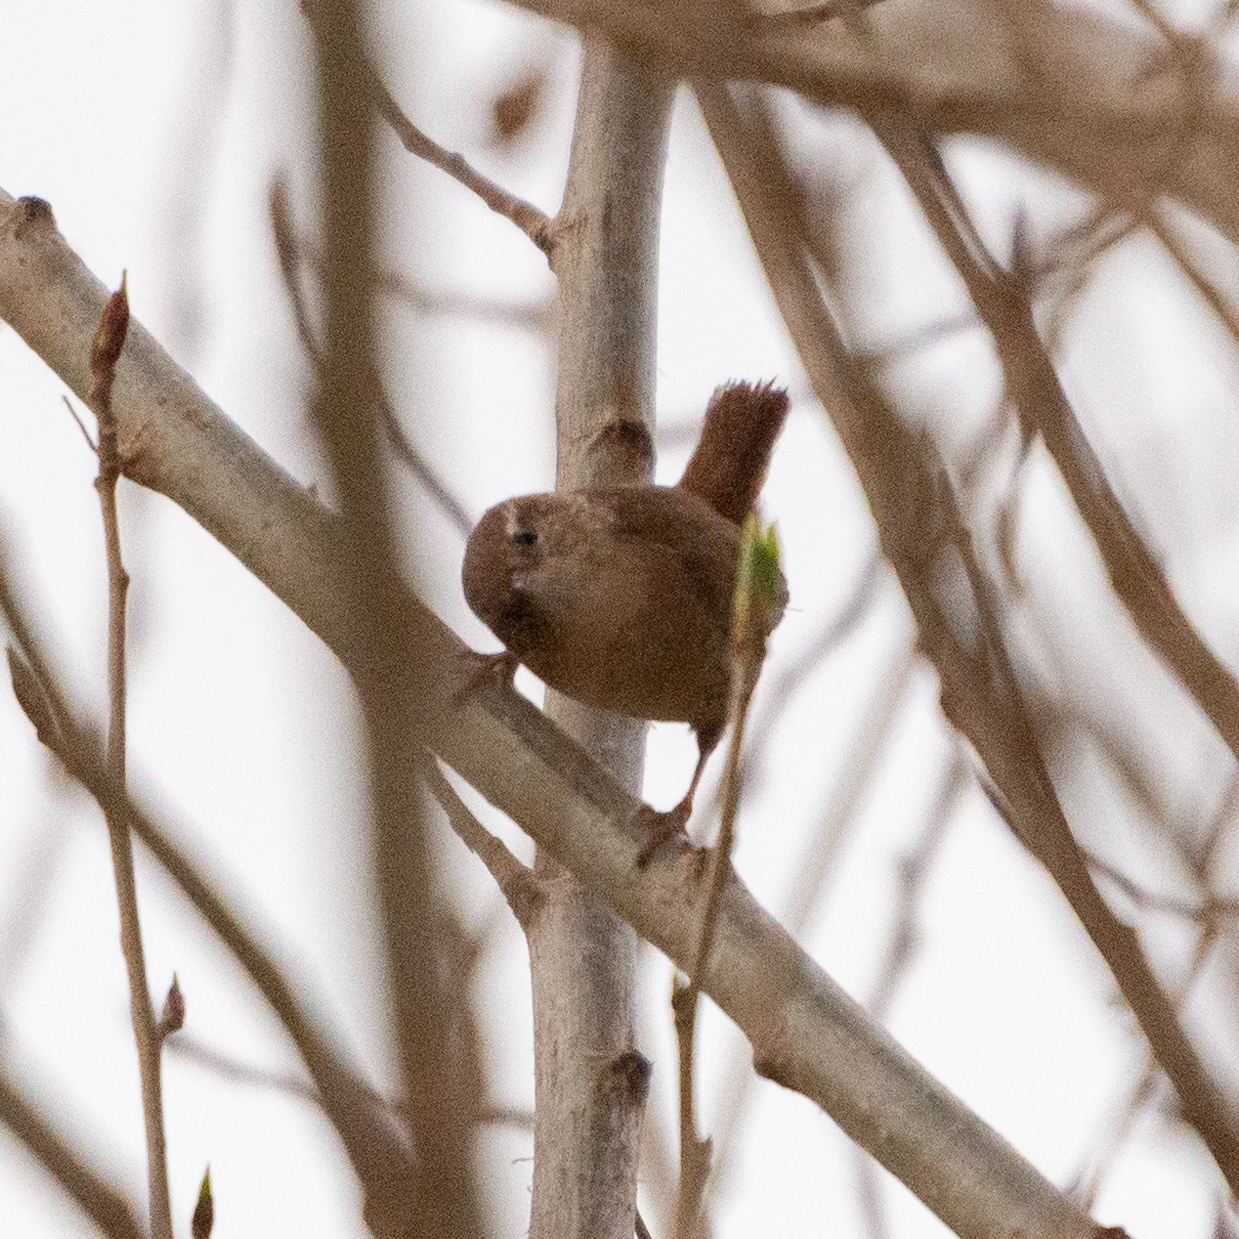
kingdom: Animalia
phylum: Chordata
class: Aves
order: Passeriformes
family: Troglodytidae
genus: Troglodytes
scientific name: Troglodytes troglodytes
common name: Eurasian wren
